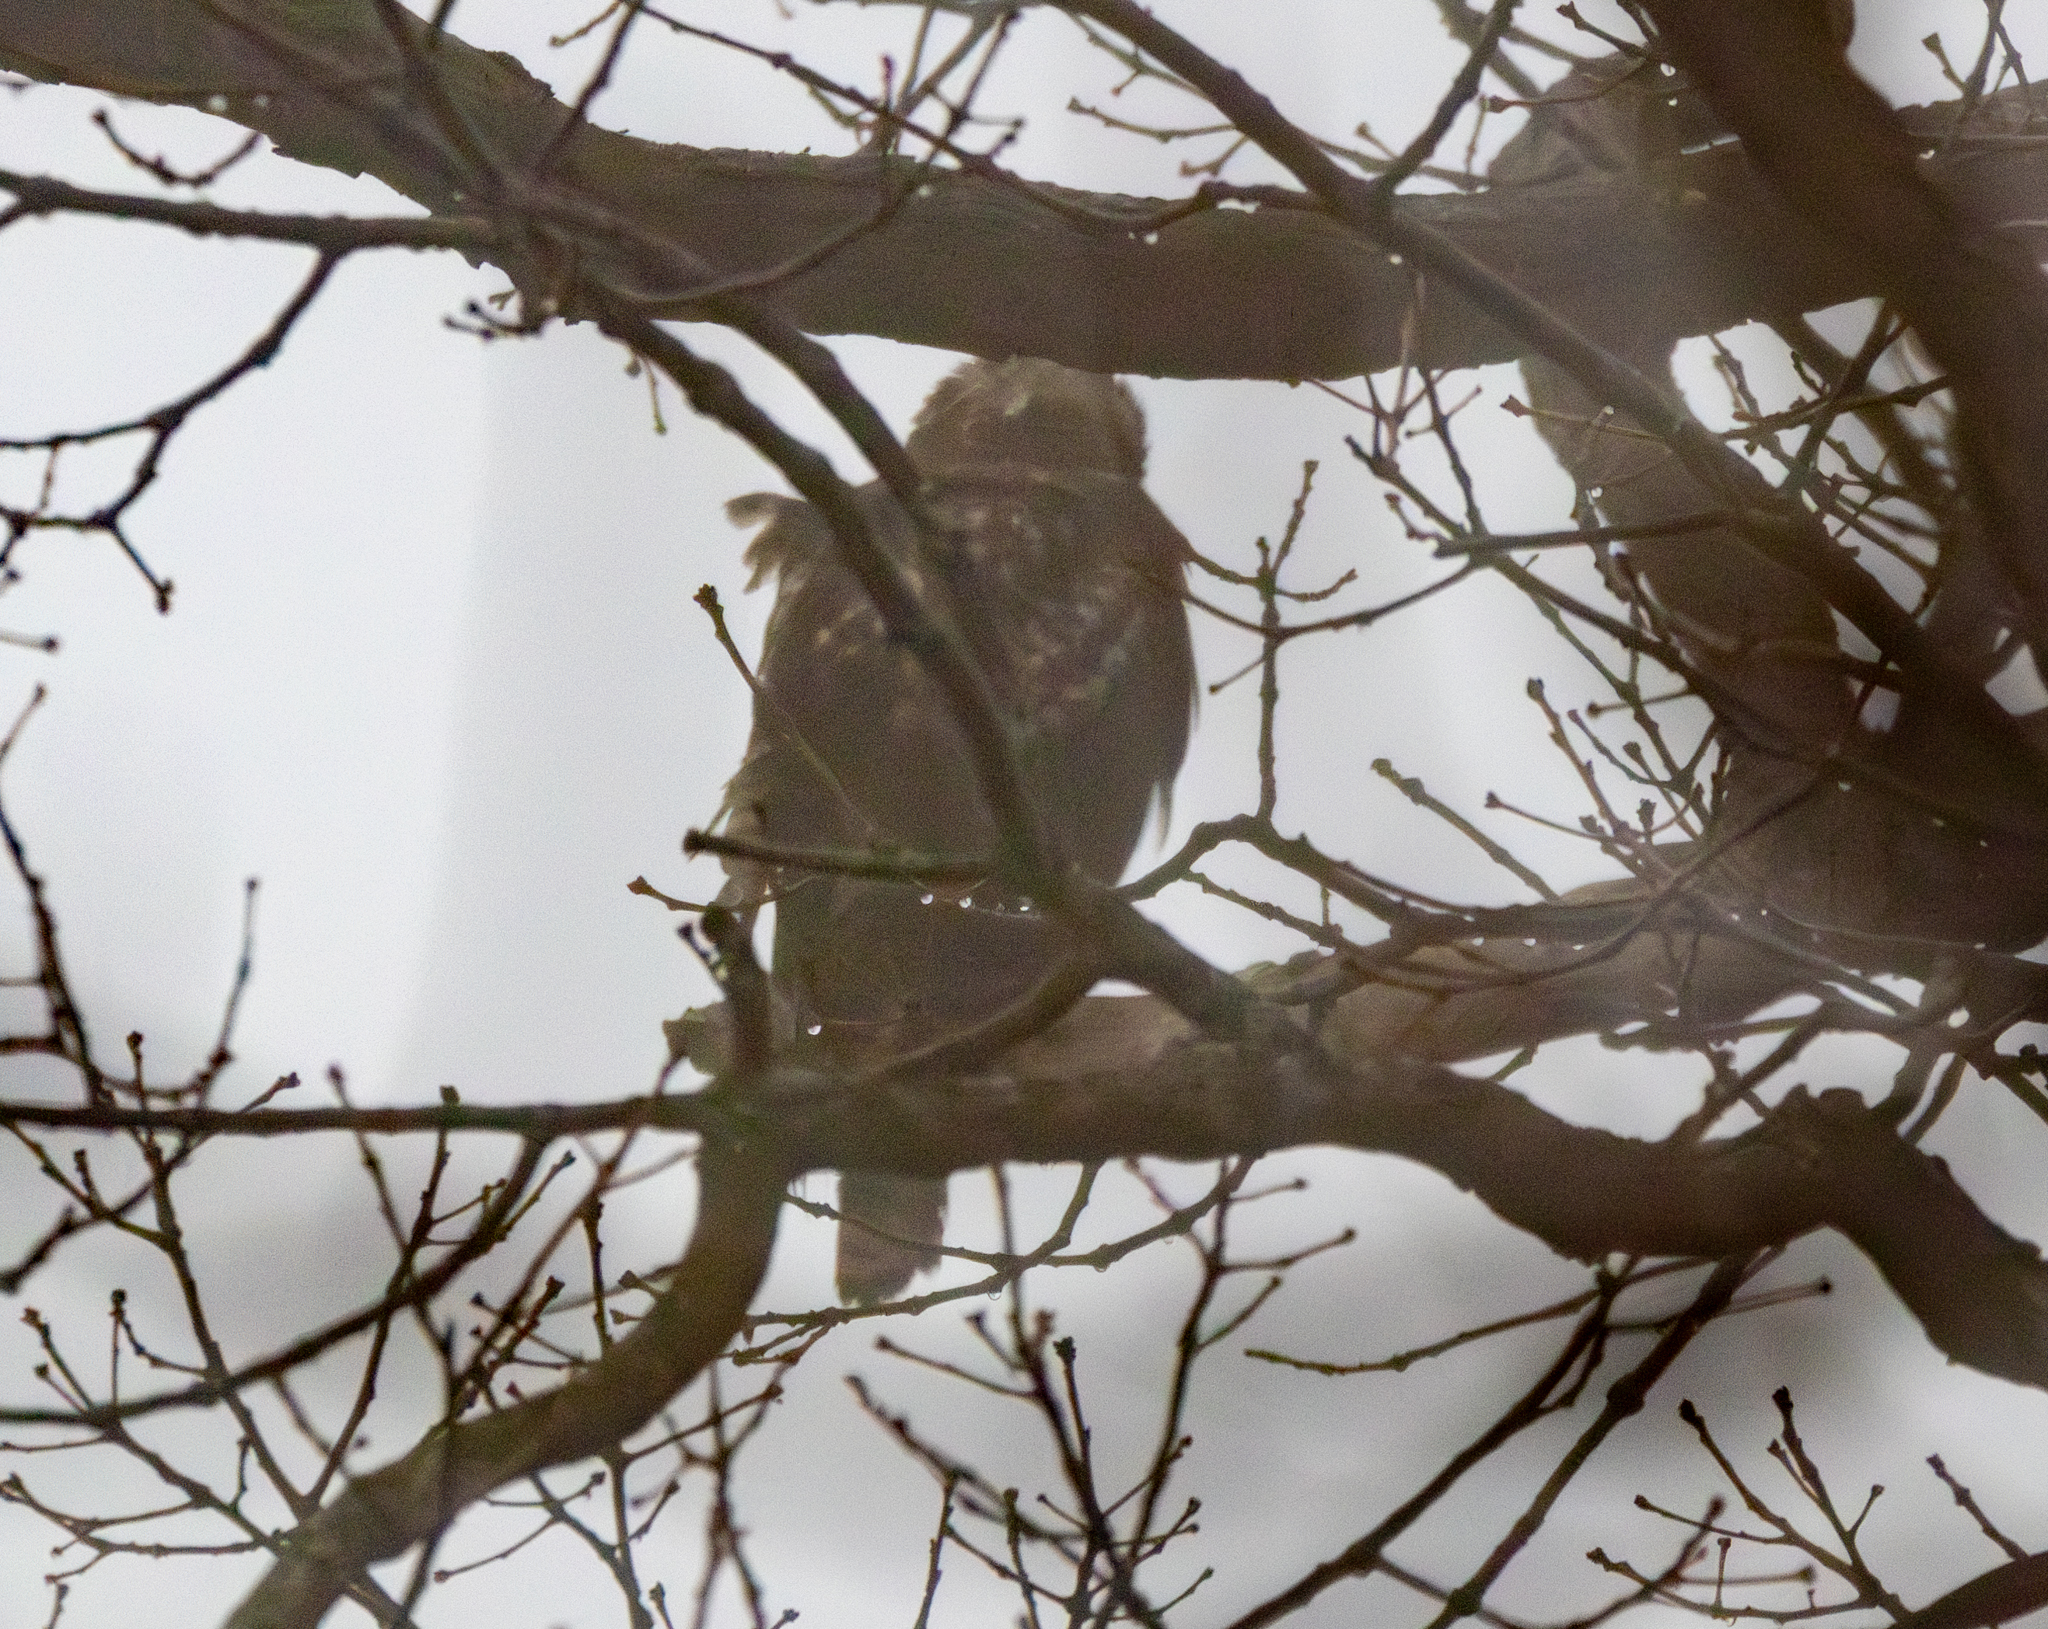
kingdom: Animalia
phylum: Chordata
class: Aves
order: Accipitriformes
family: Accipitridae
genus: Buteo
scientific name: Buteo jamaicensis
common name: Red-tailed hawk
